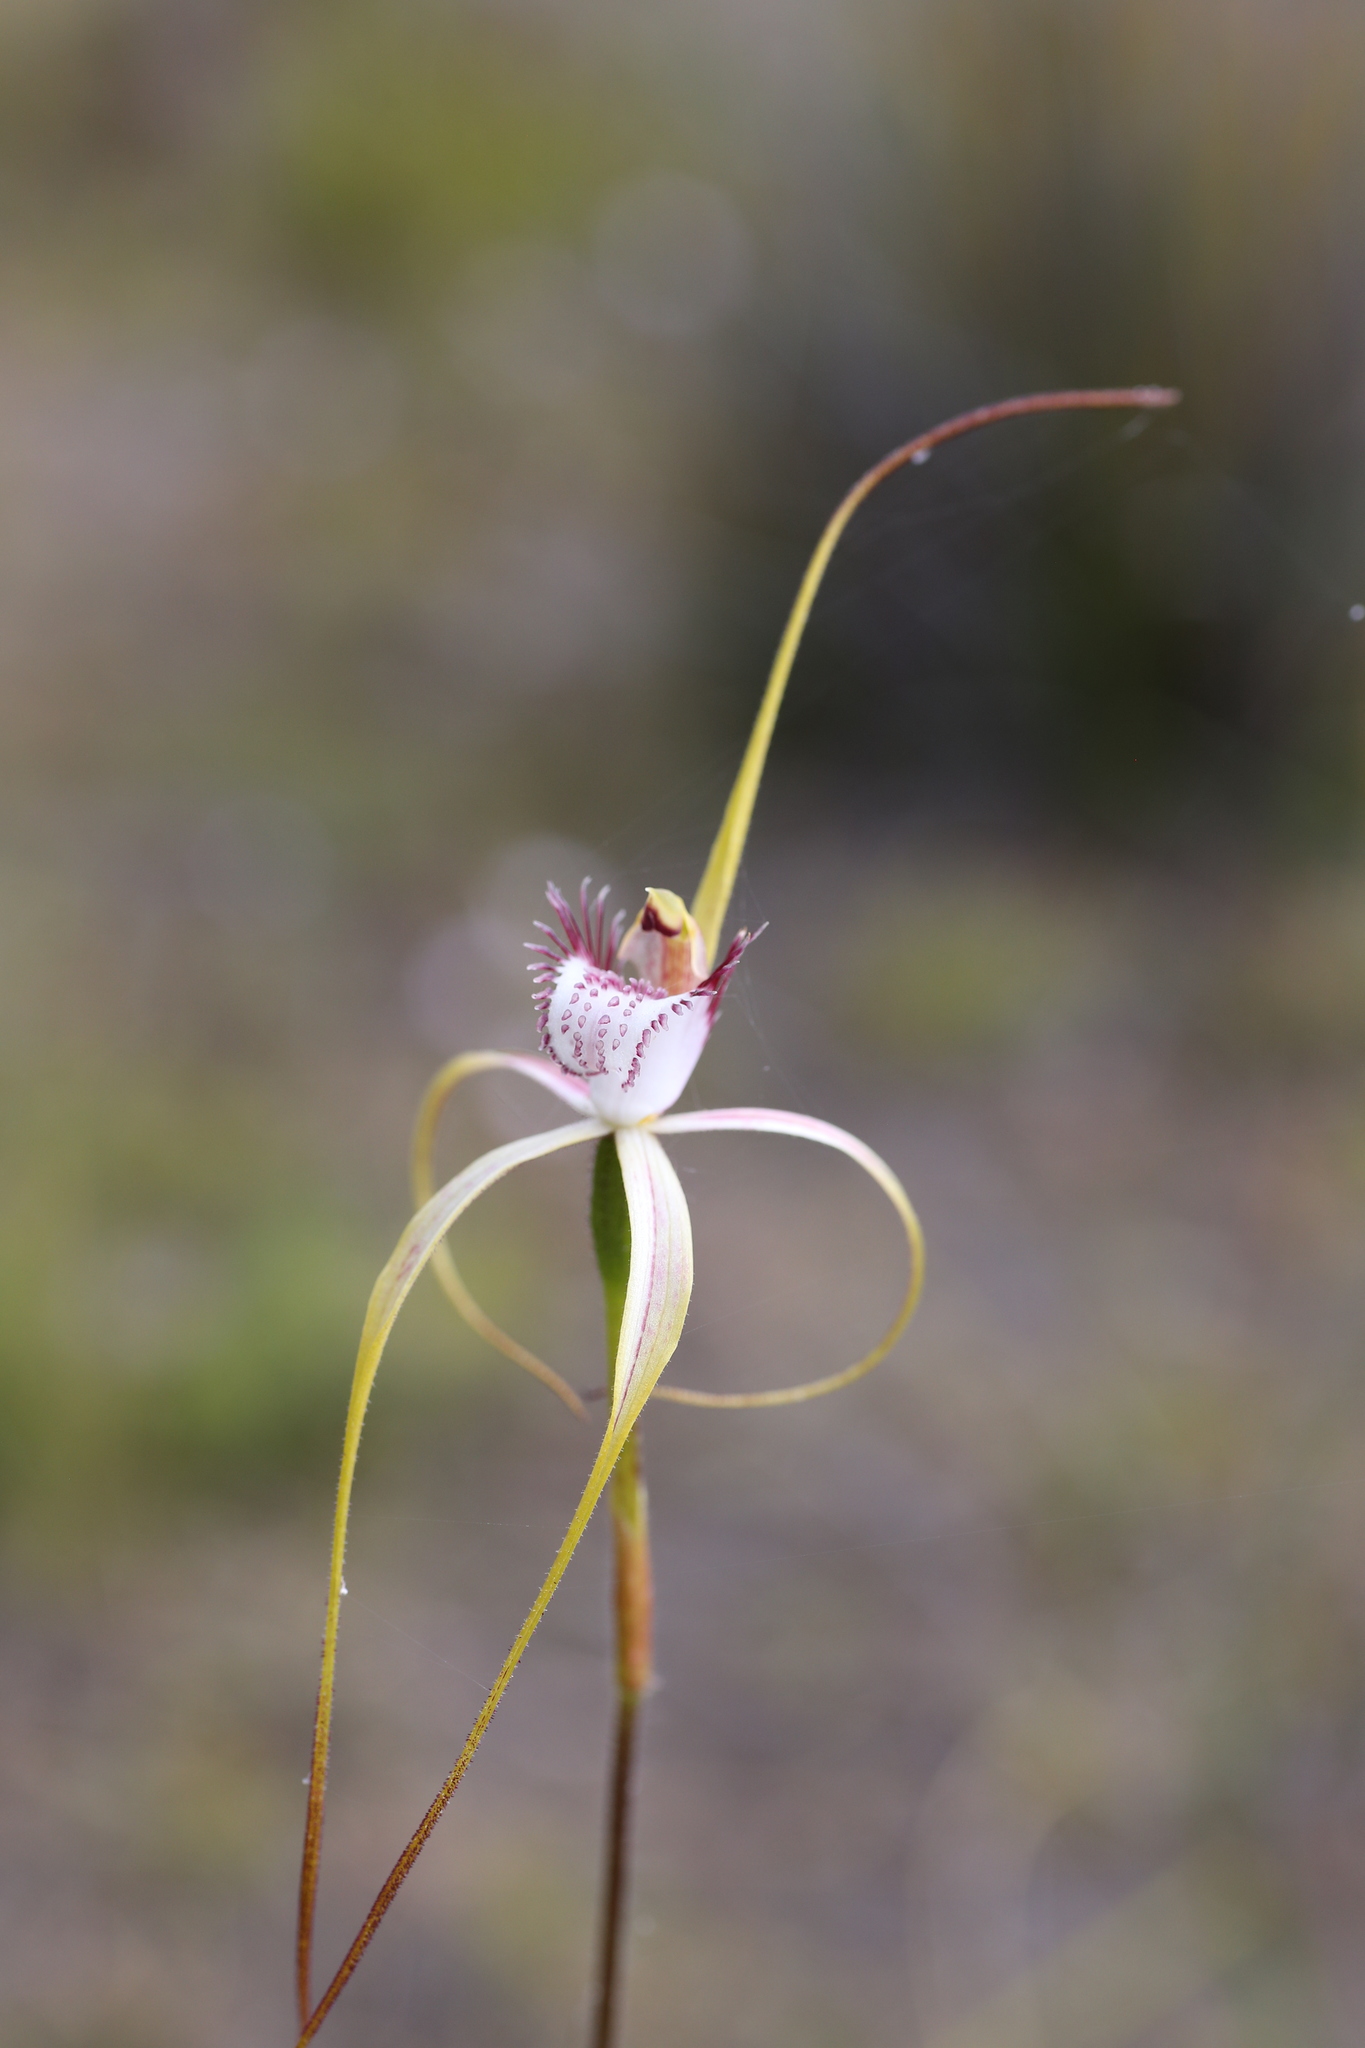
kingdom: Plantae
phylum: Tracheophyta
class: Liliopsida
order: Asparagales
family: Orchidaceae
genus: Caladenia
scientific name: Caladenia lodgeana
